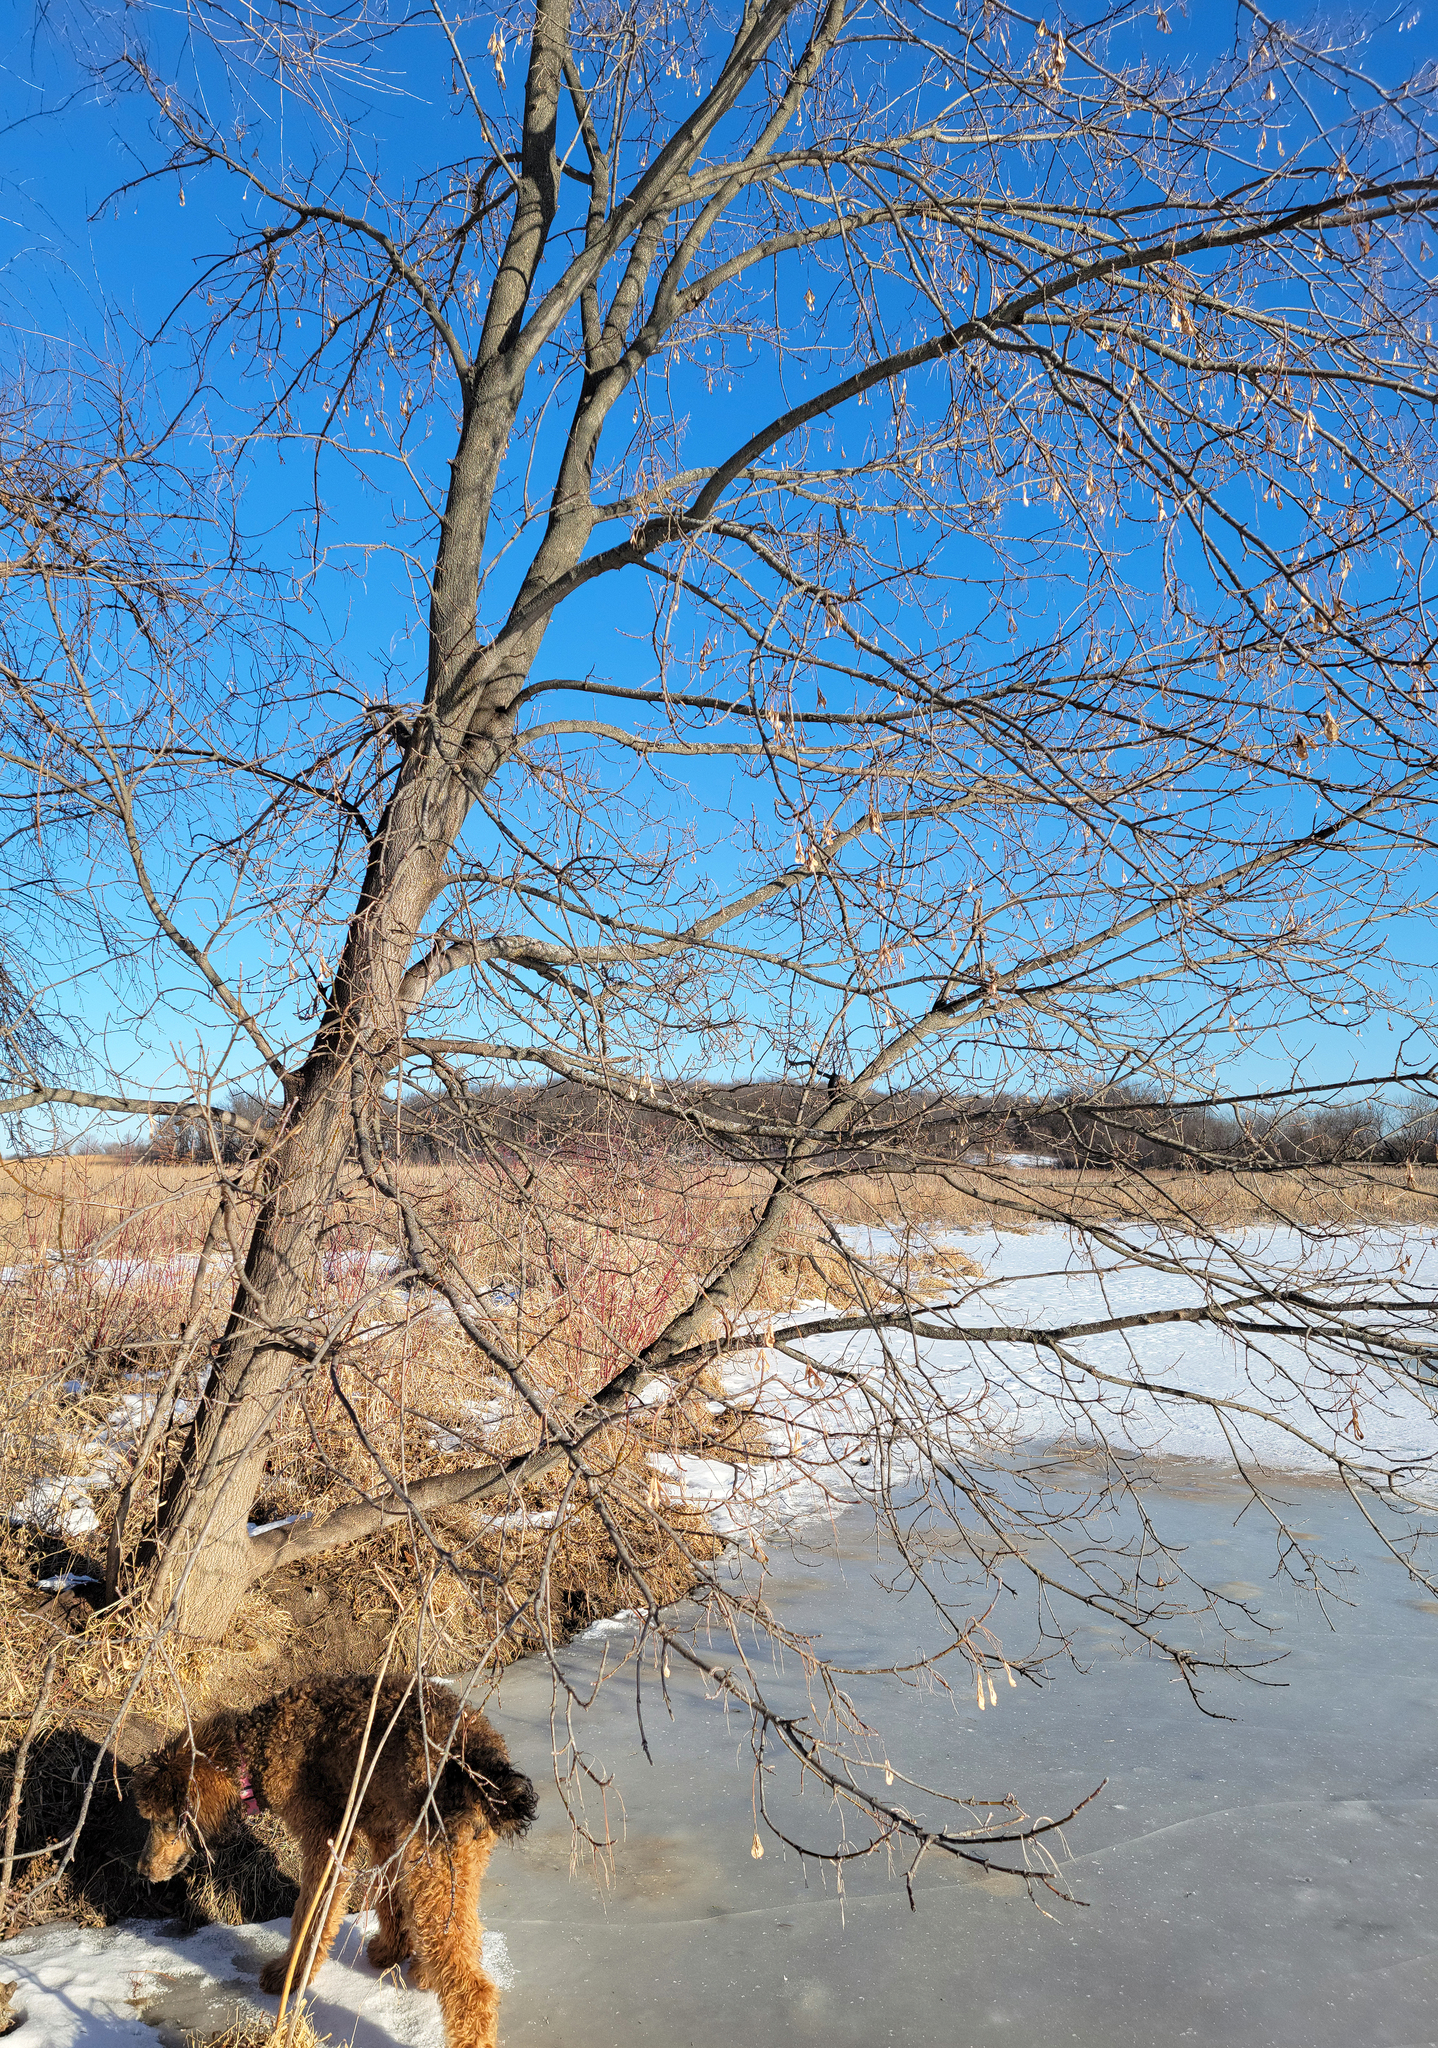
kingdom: Plantae
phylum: Tracheophyta
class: Magnoliopsida
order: Sapindales
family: Sapindaceae
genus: Acer
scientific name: Acer negundo
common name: Ashleaf maple
